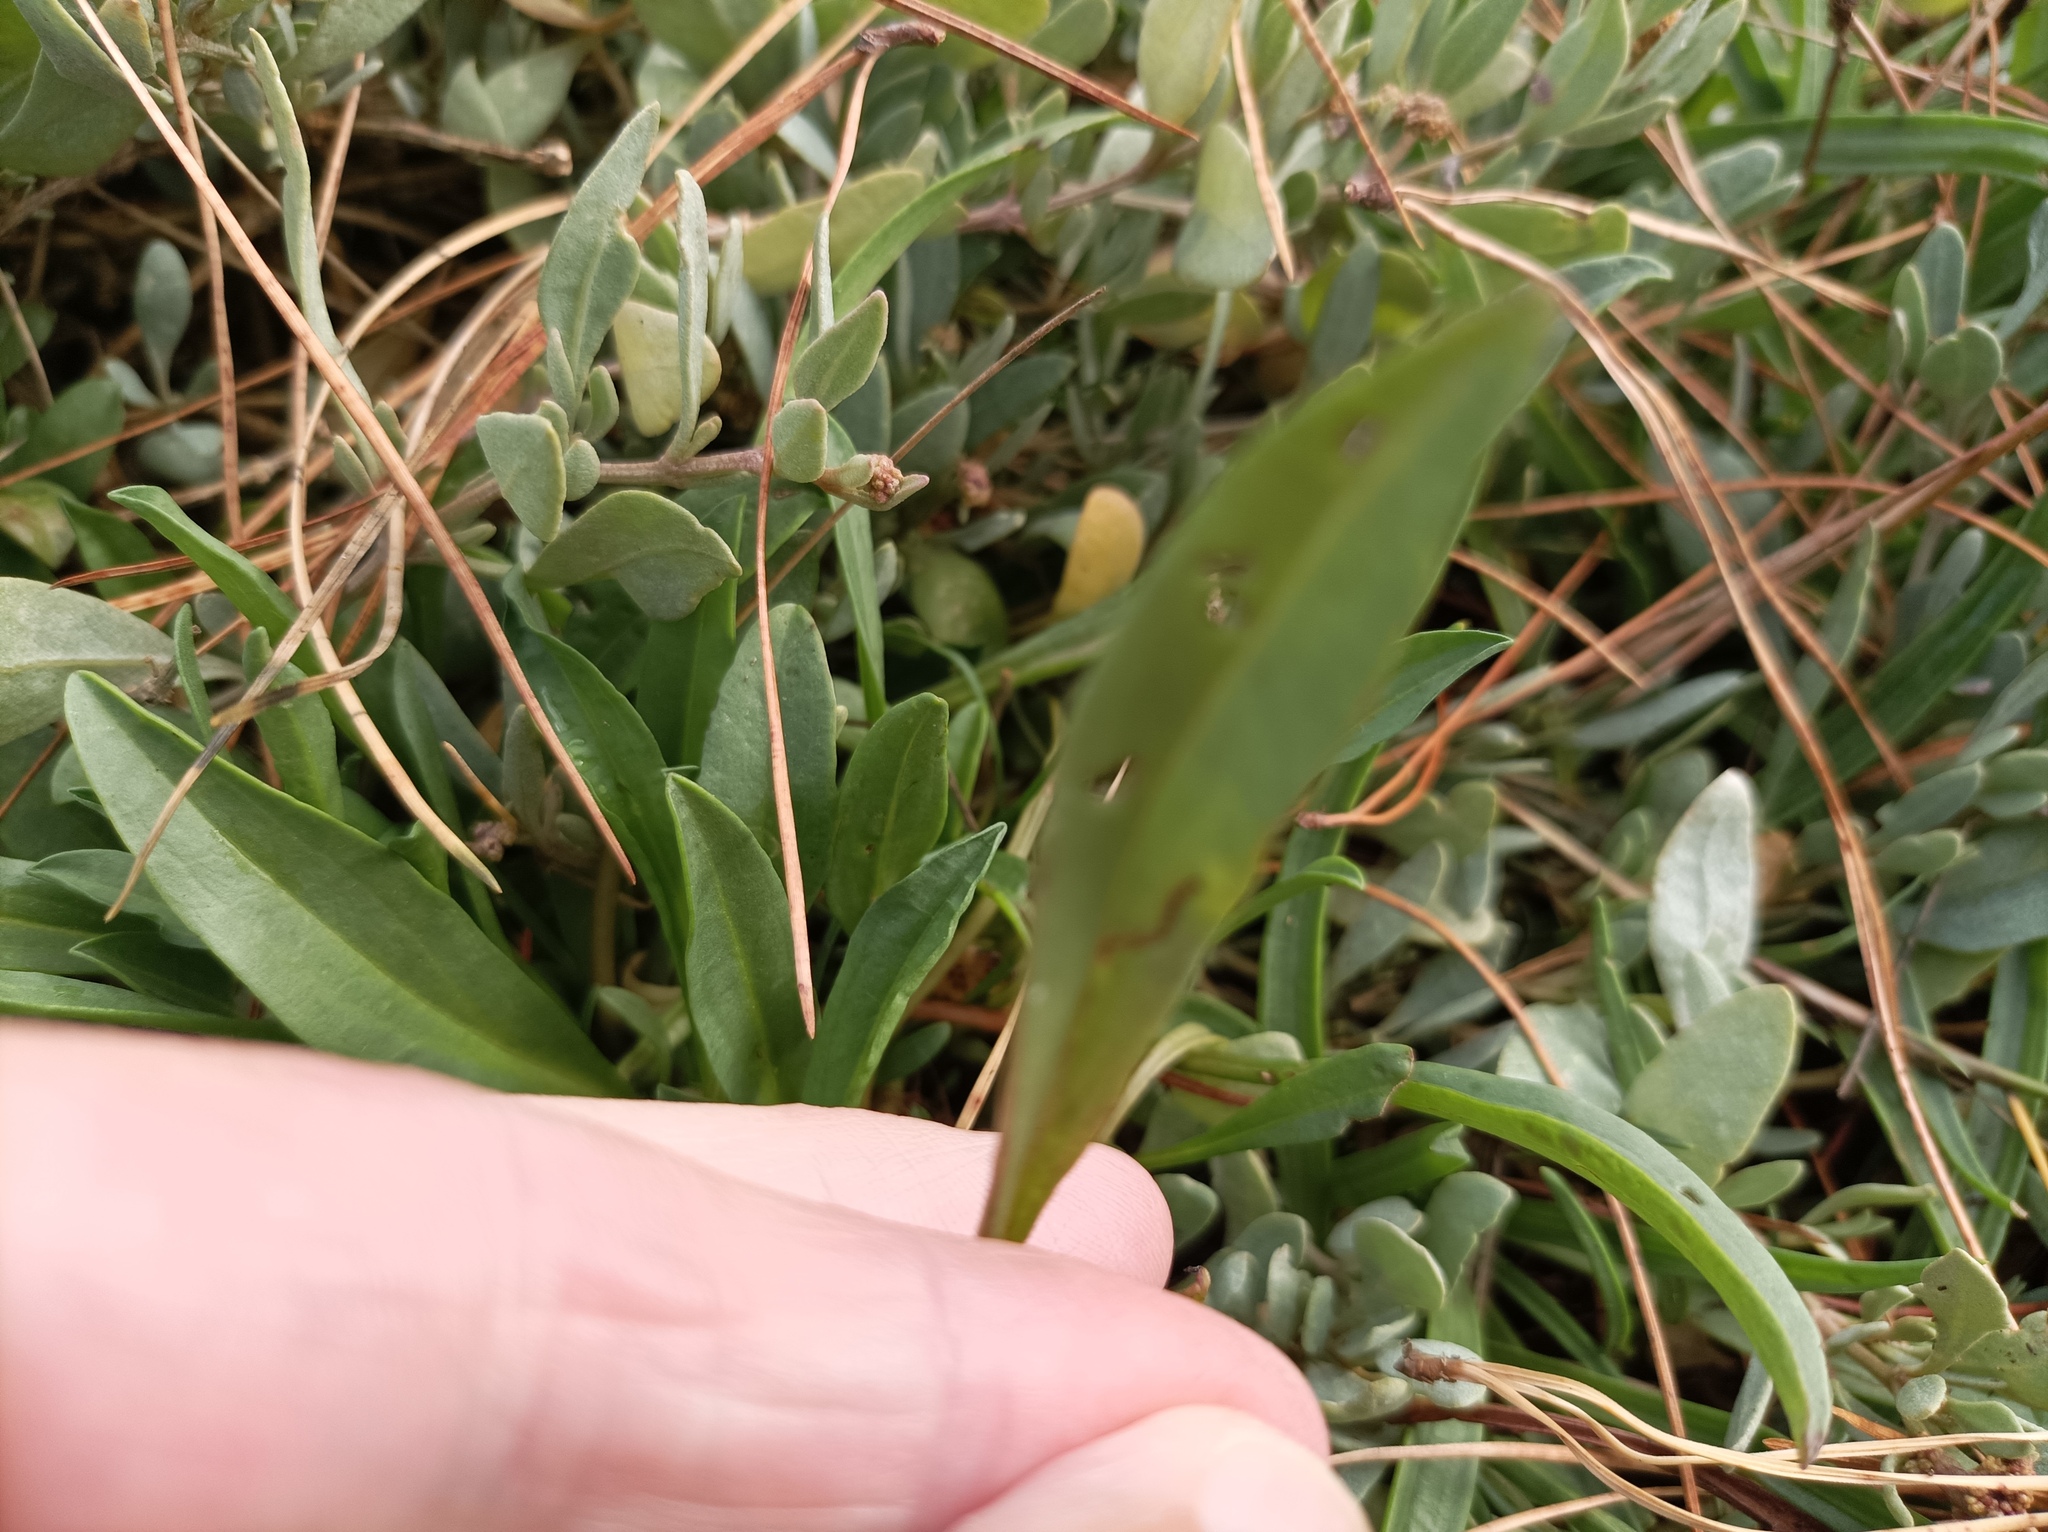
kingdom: Plantae
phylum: Tracheophyta
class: Magnoliopsida
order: Asterales
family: Asteraceae
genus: Tripolium
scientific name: Tripolium pannonicum
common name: Sea aster
